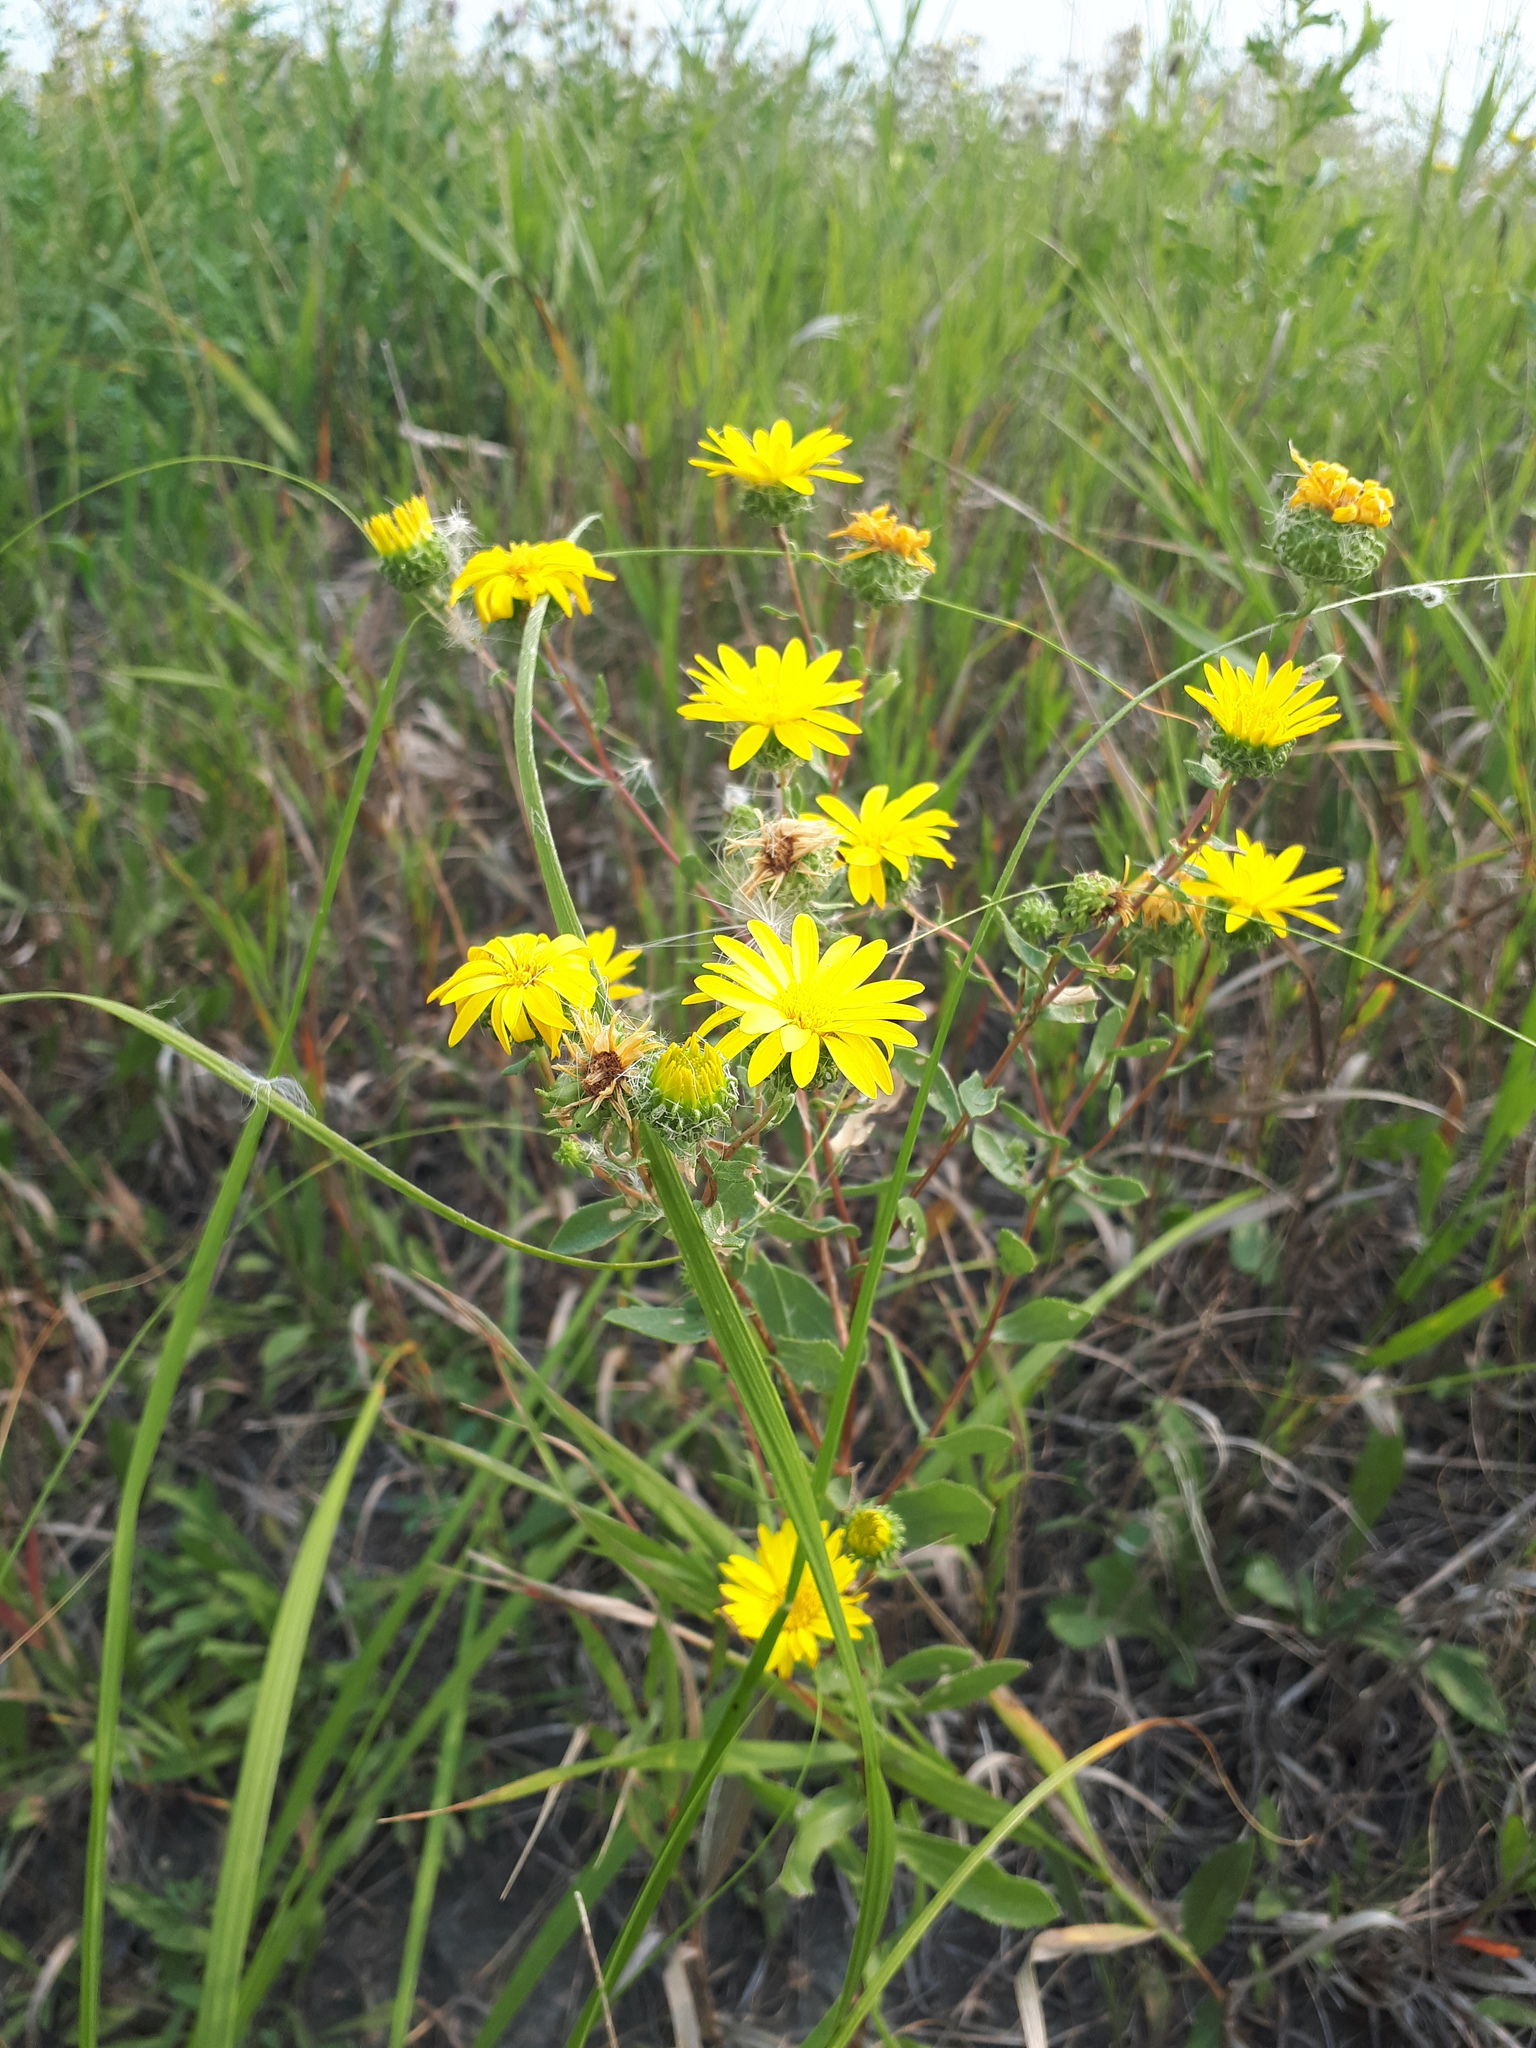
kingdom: Plantae
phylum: Tracheophyta
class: Magnoliopsida
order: Asterales
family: Asteraceae
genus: Grindelia
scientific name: Grindelia squarrosa
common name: Curly-cup gumweed
